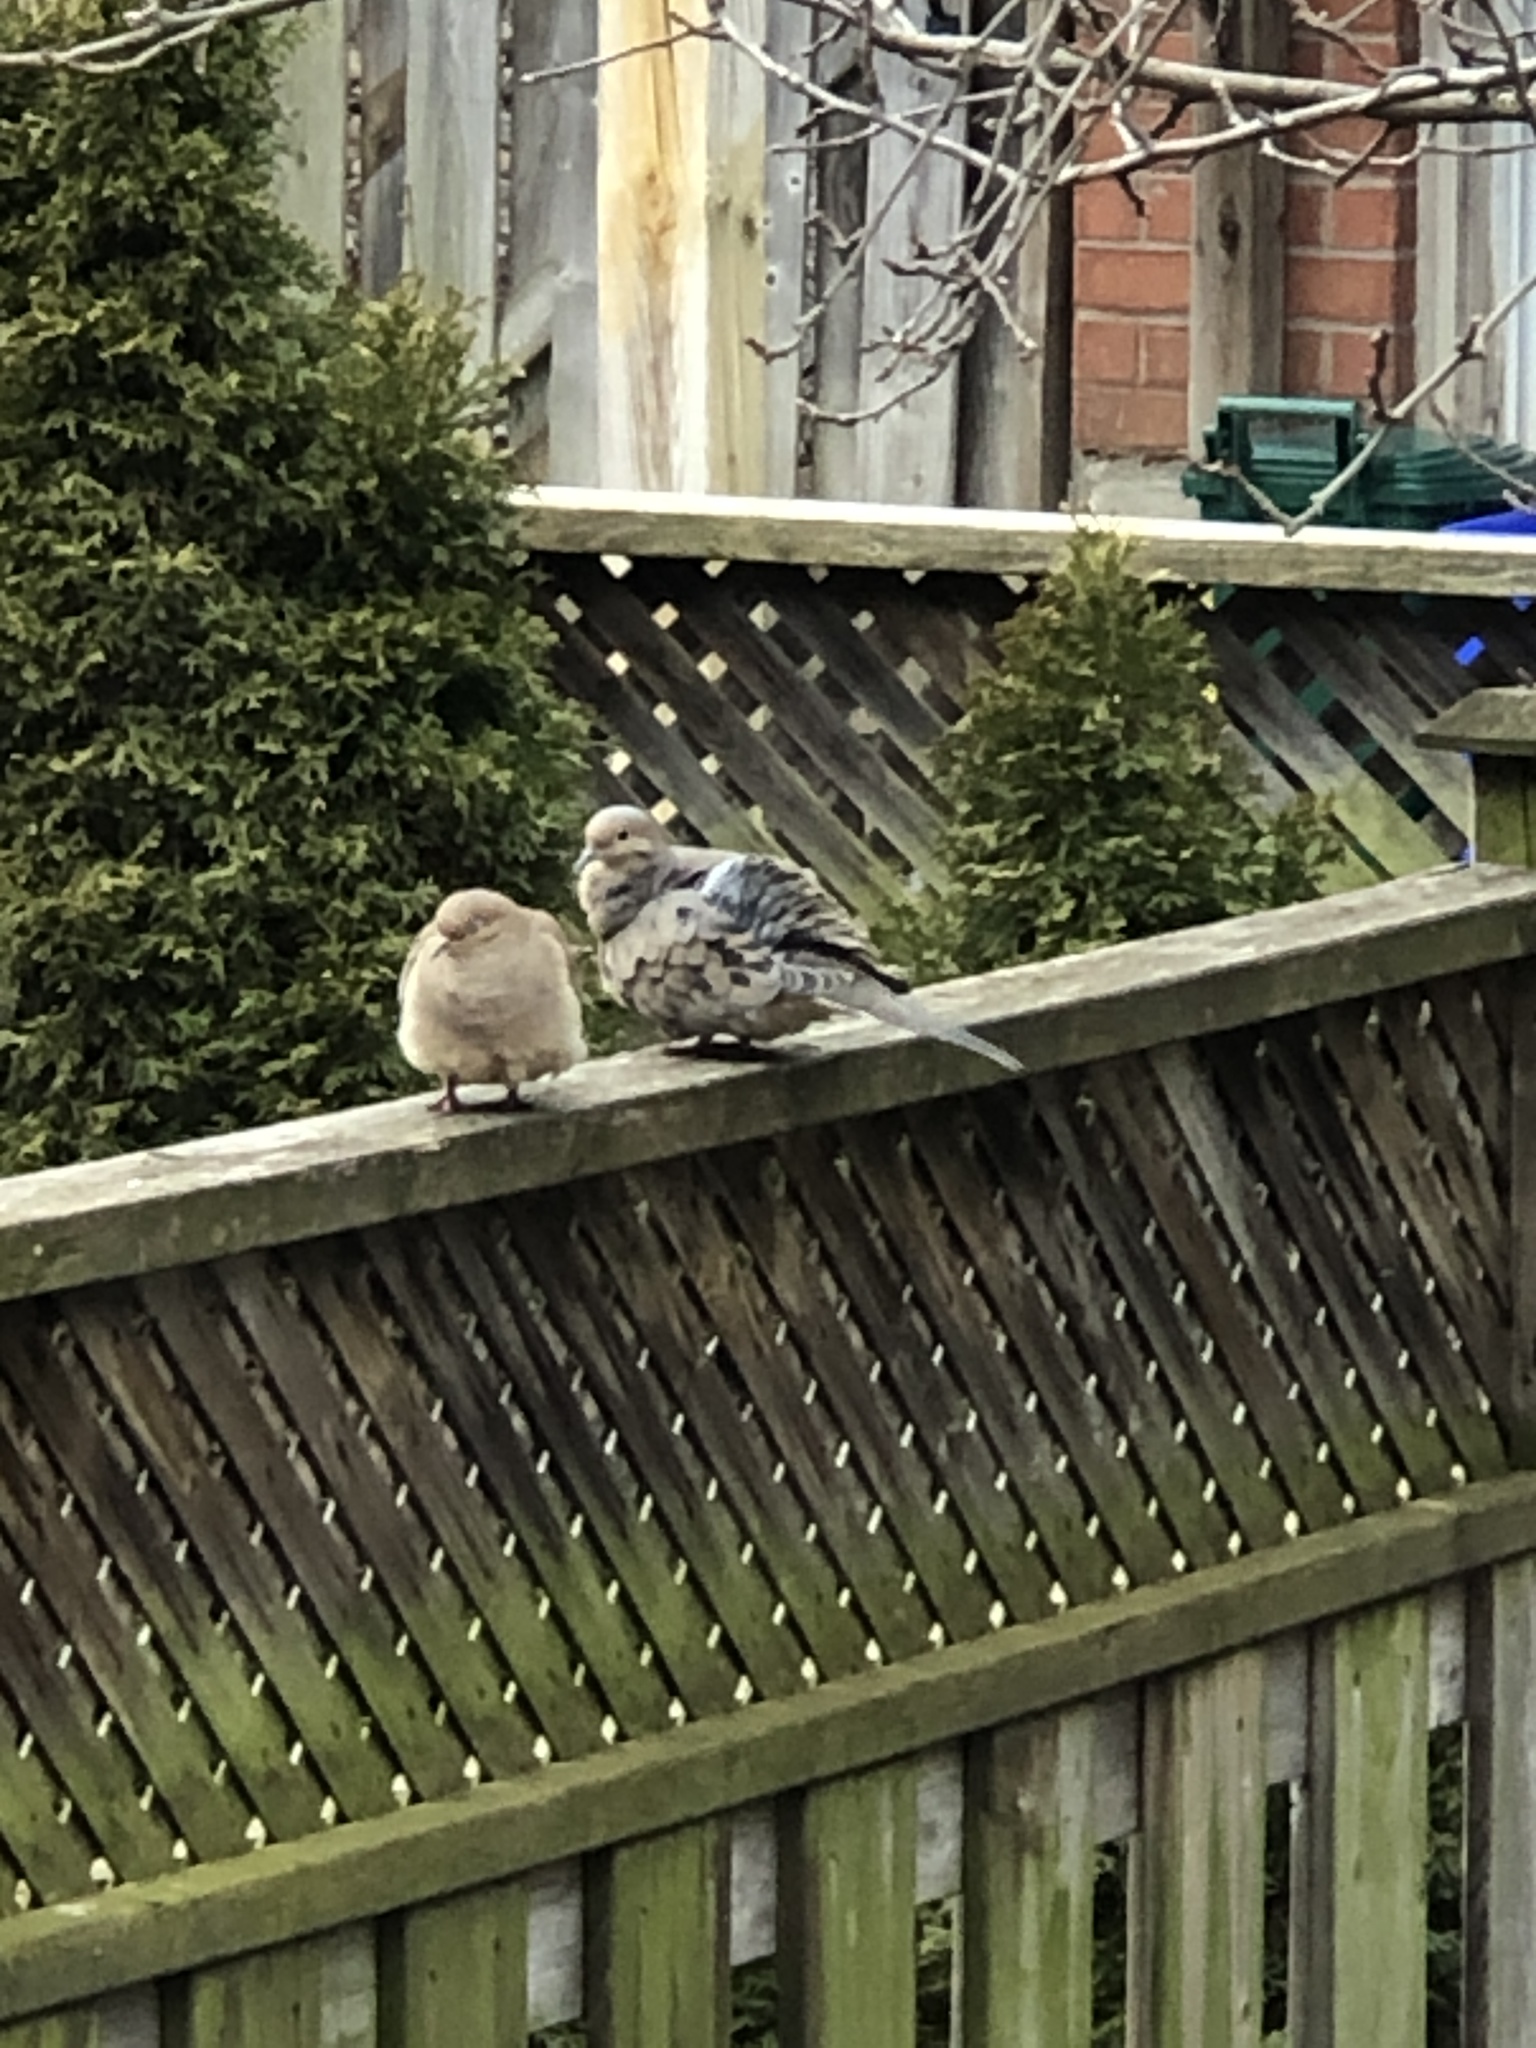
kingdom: Animalia
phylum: Chordata
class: Aves
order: Columbiformes
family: Columbidae
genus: Zenaida
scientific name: Zenaida macroura
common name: Mourning dove
